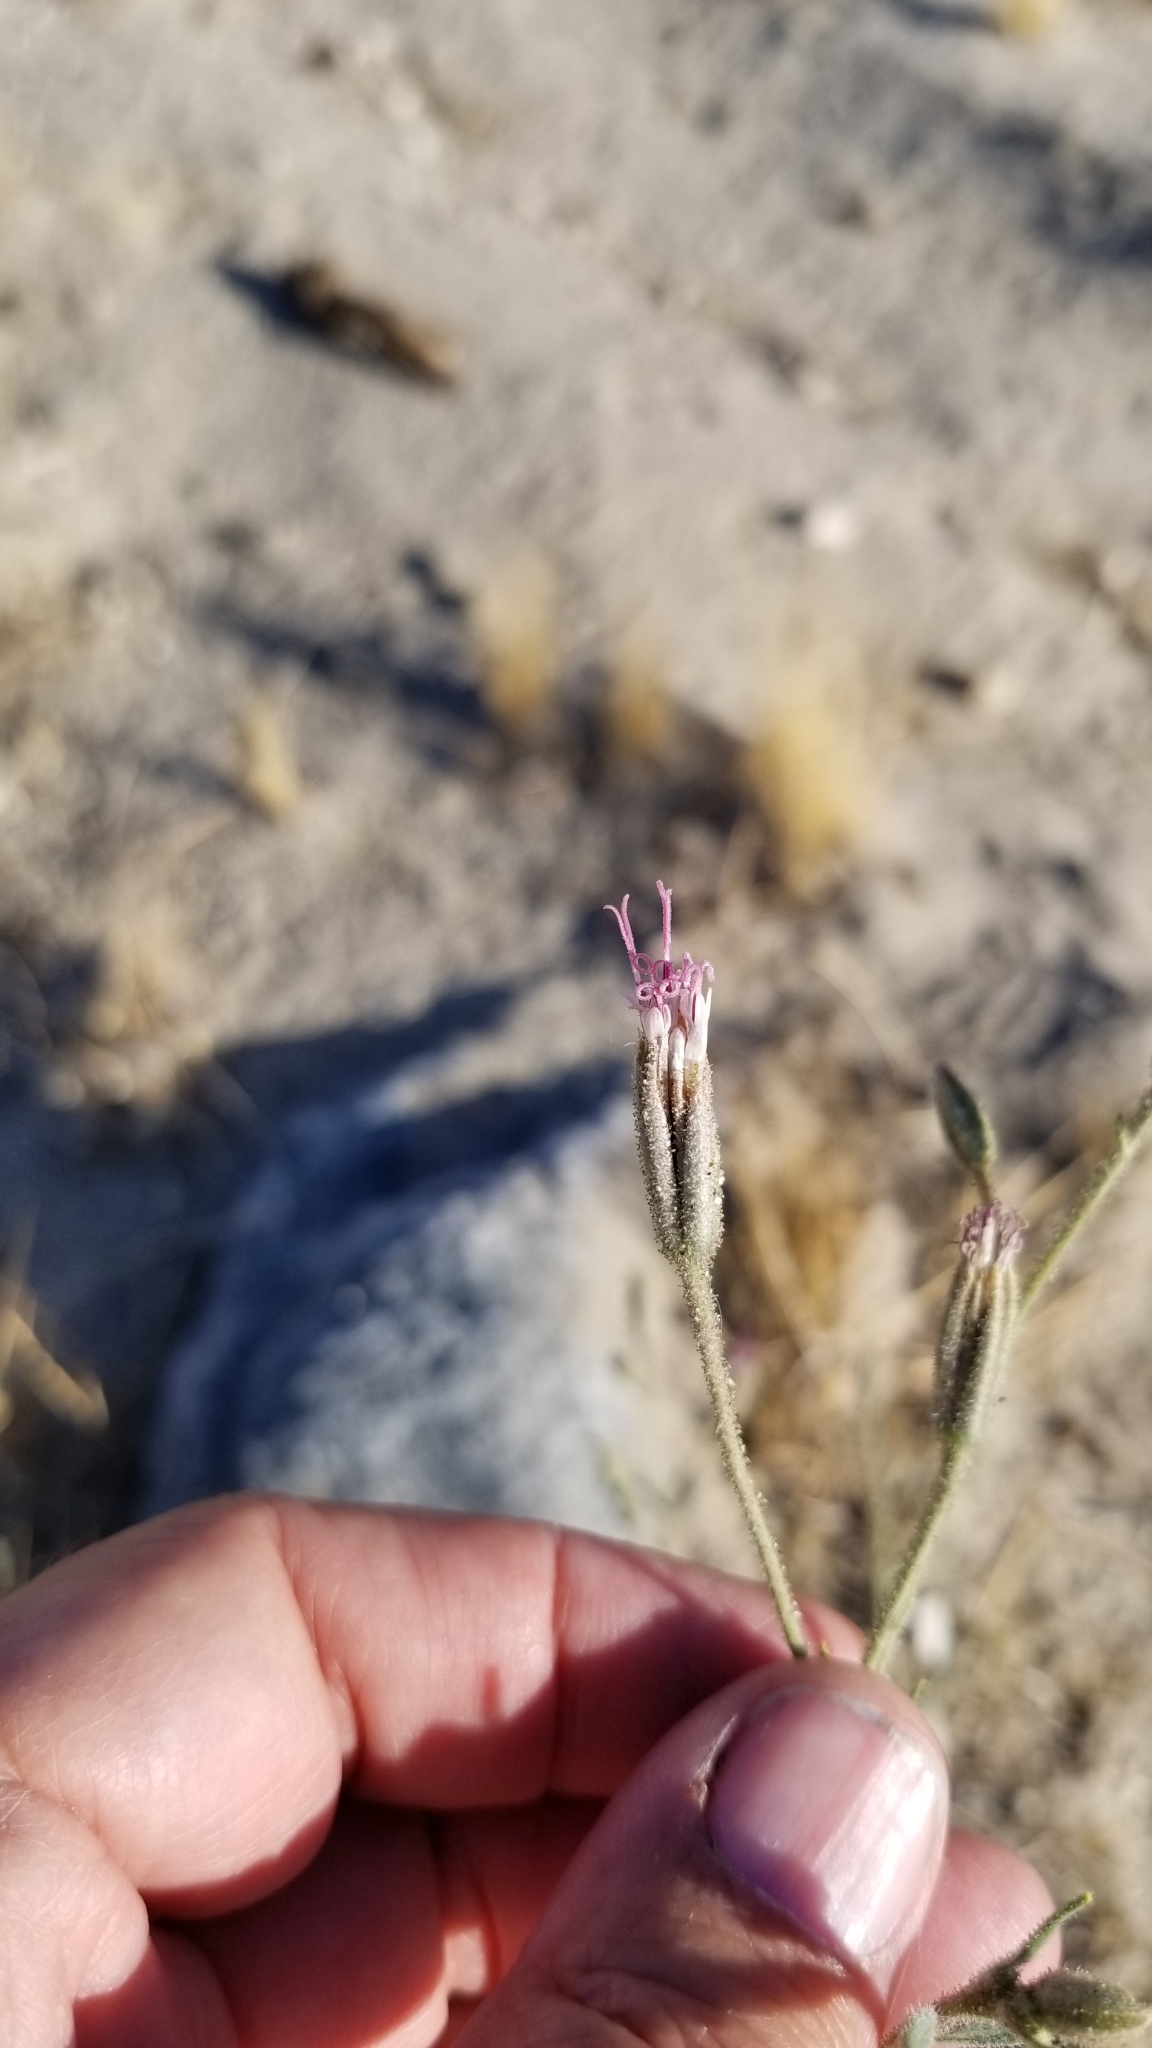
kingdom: Plantae
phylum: Tracheophyta
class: Magnoliopsida
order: Asterales
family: Asteraceae
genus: Palafoxia
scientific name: Palafoxia arida
